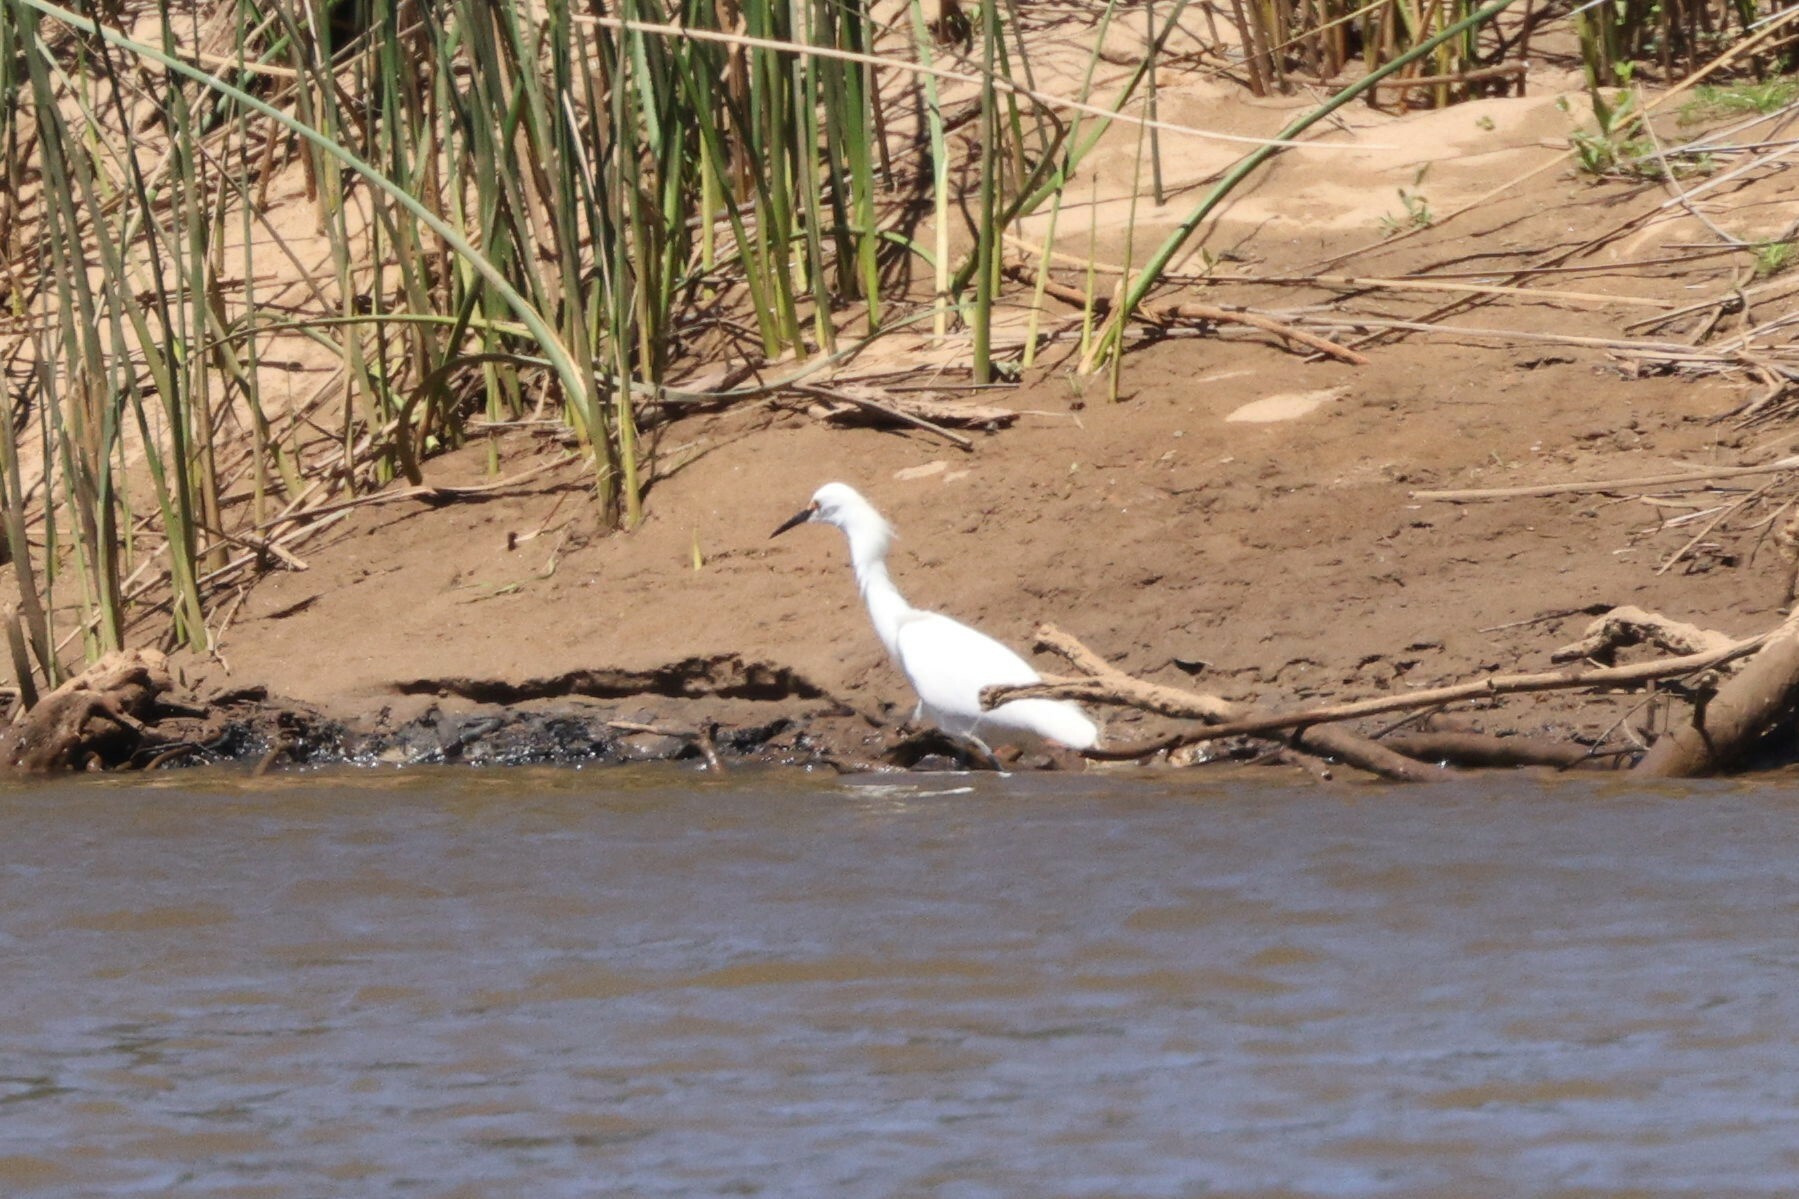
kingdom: Animalia
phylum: Chordata
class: Aves
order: Pelecaniformes
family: Ardeidae
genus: Egretta
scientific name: Egretta thula
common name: Snowy egret
